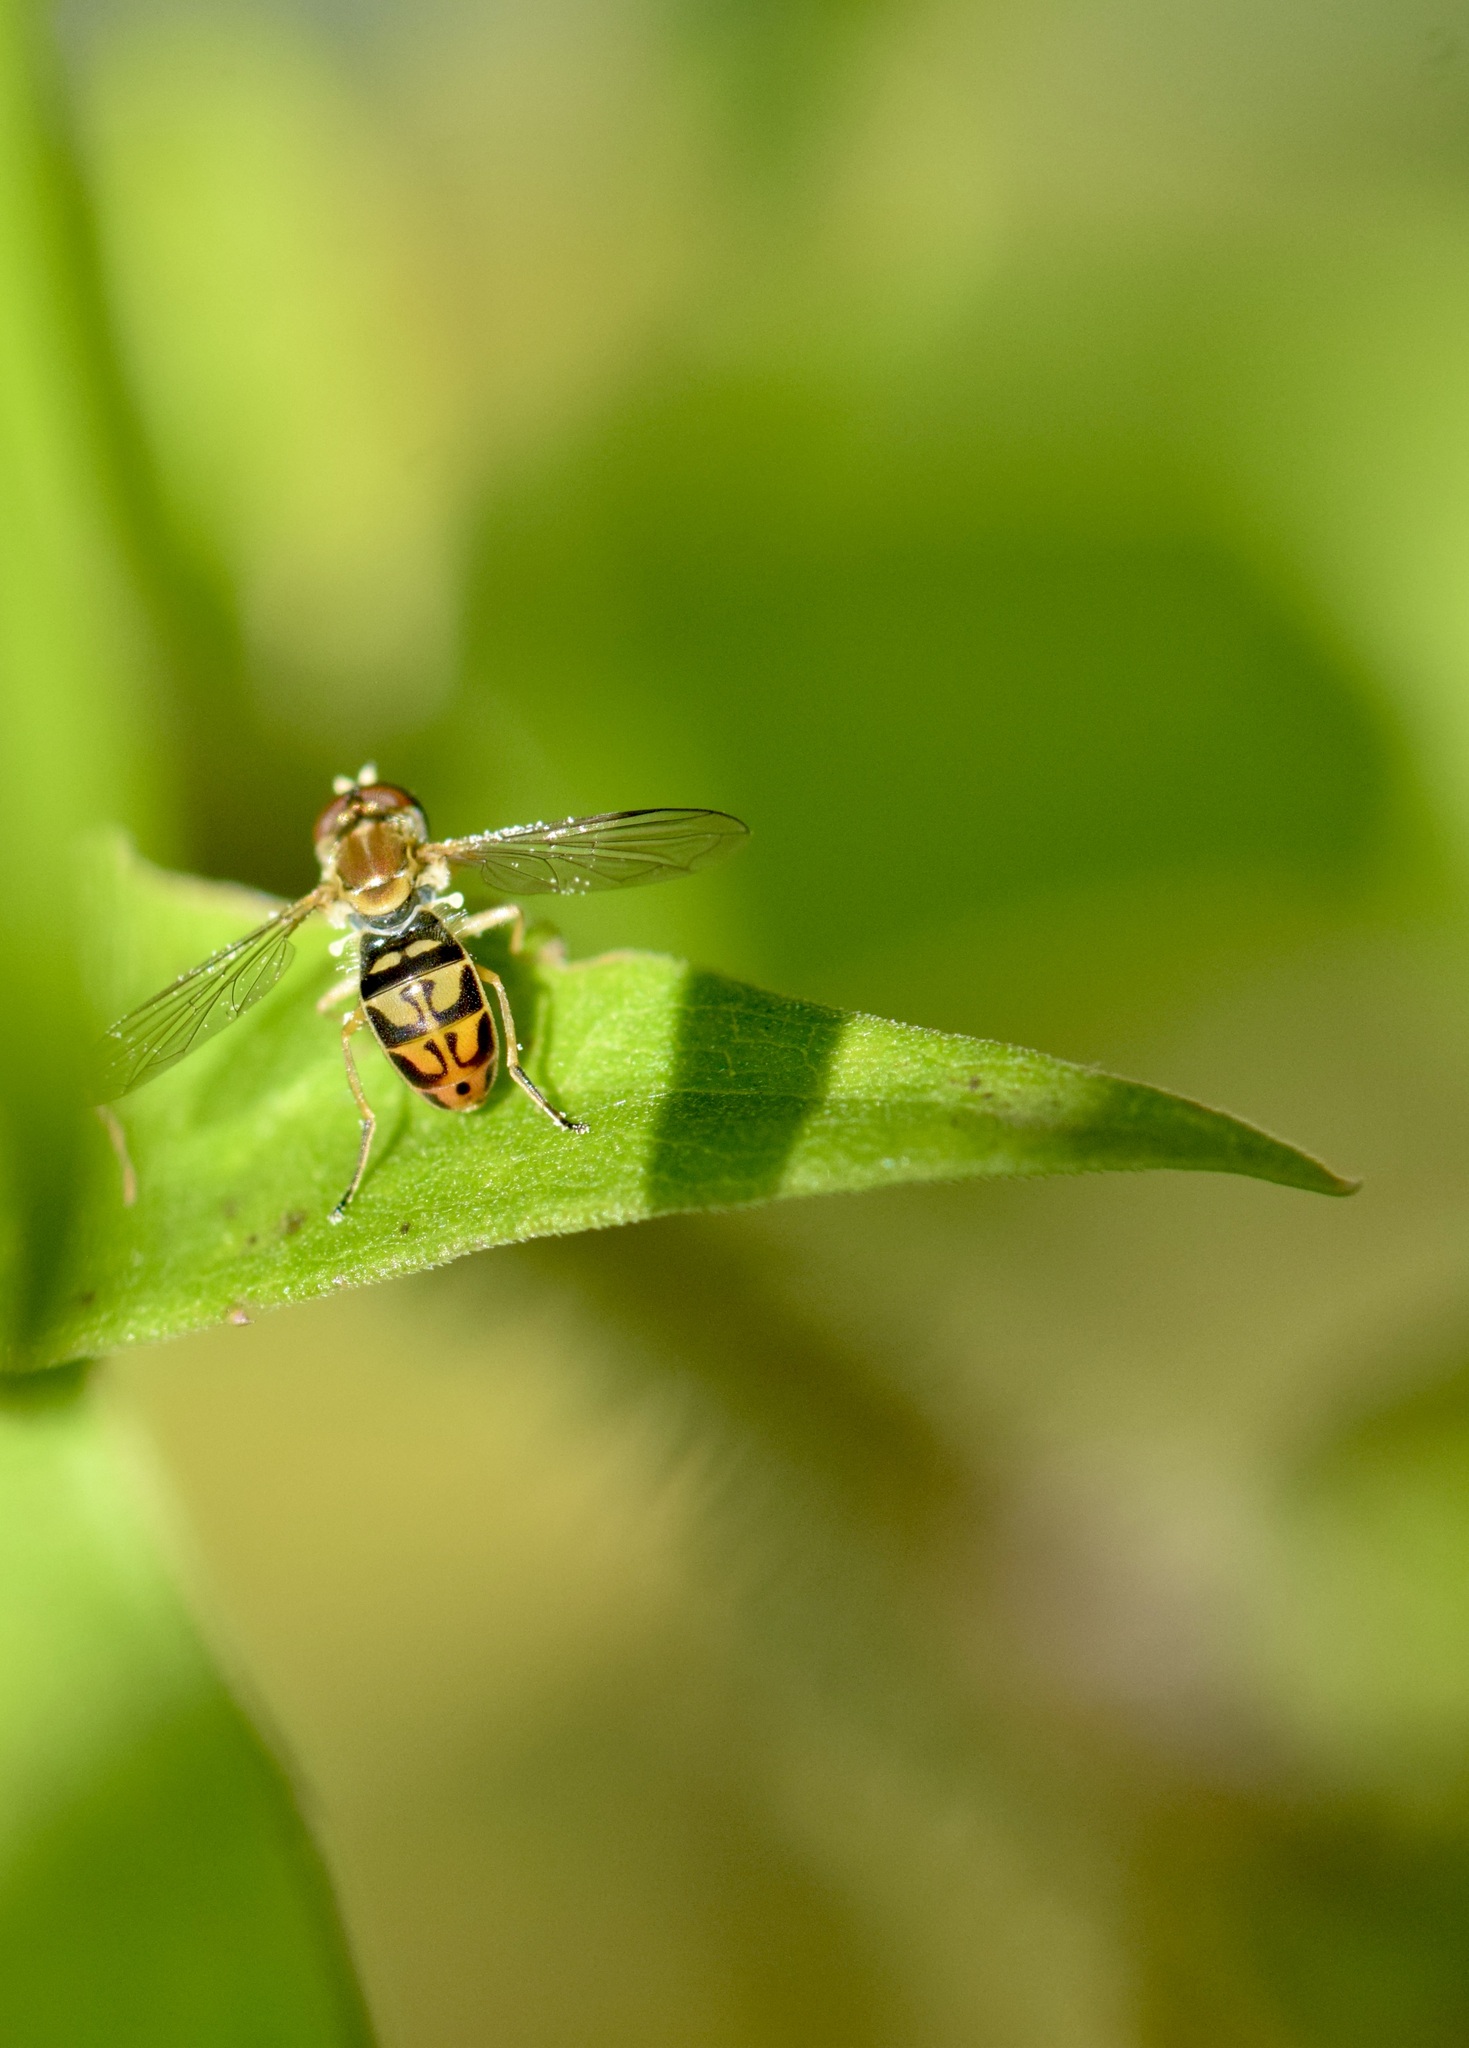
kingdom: Animalia
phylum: Arthropoda
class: Insecta
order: Diptera
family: Syrphidae
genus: Toxomerus
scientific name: Toxomerus marginatus
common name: Syrphid fly
